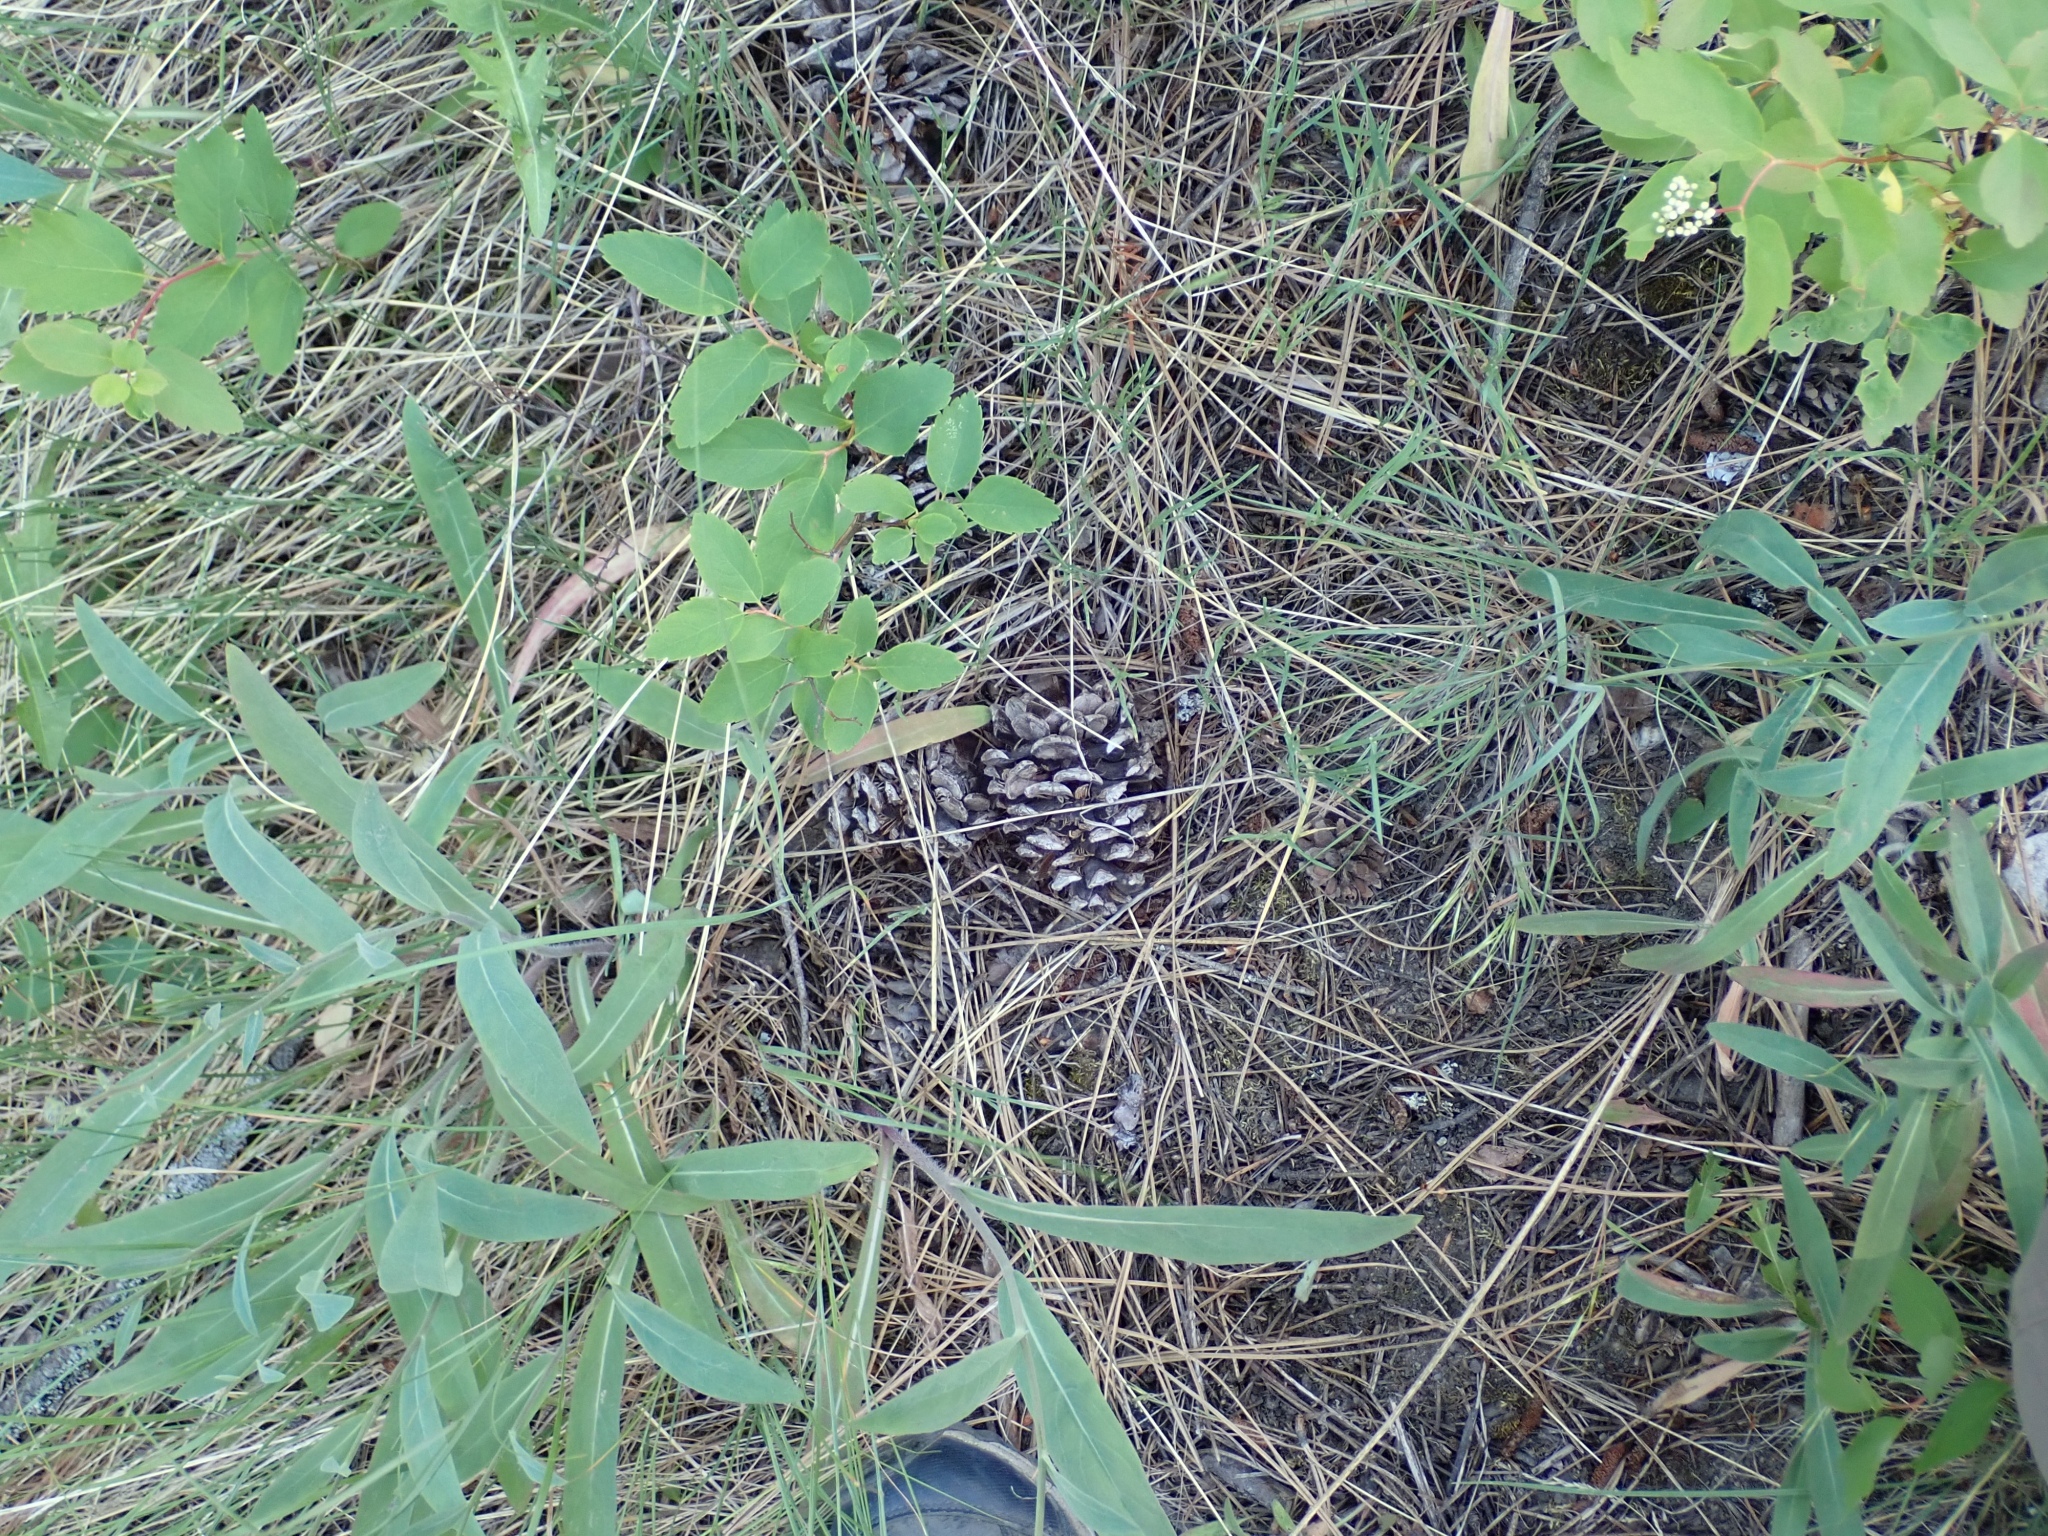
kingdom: Plantae
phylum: Tracheophyta
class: Pinopsida
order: Pinales
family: Pinaceae
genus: Pinus
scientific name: Pinus ponderosa
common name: Western yellow-pine
